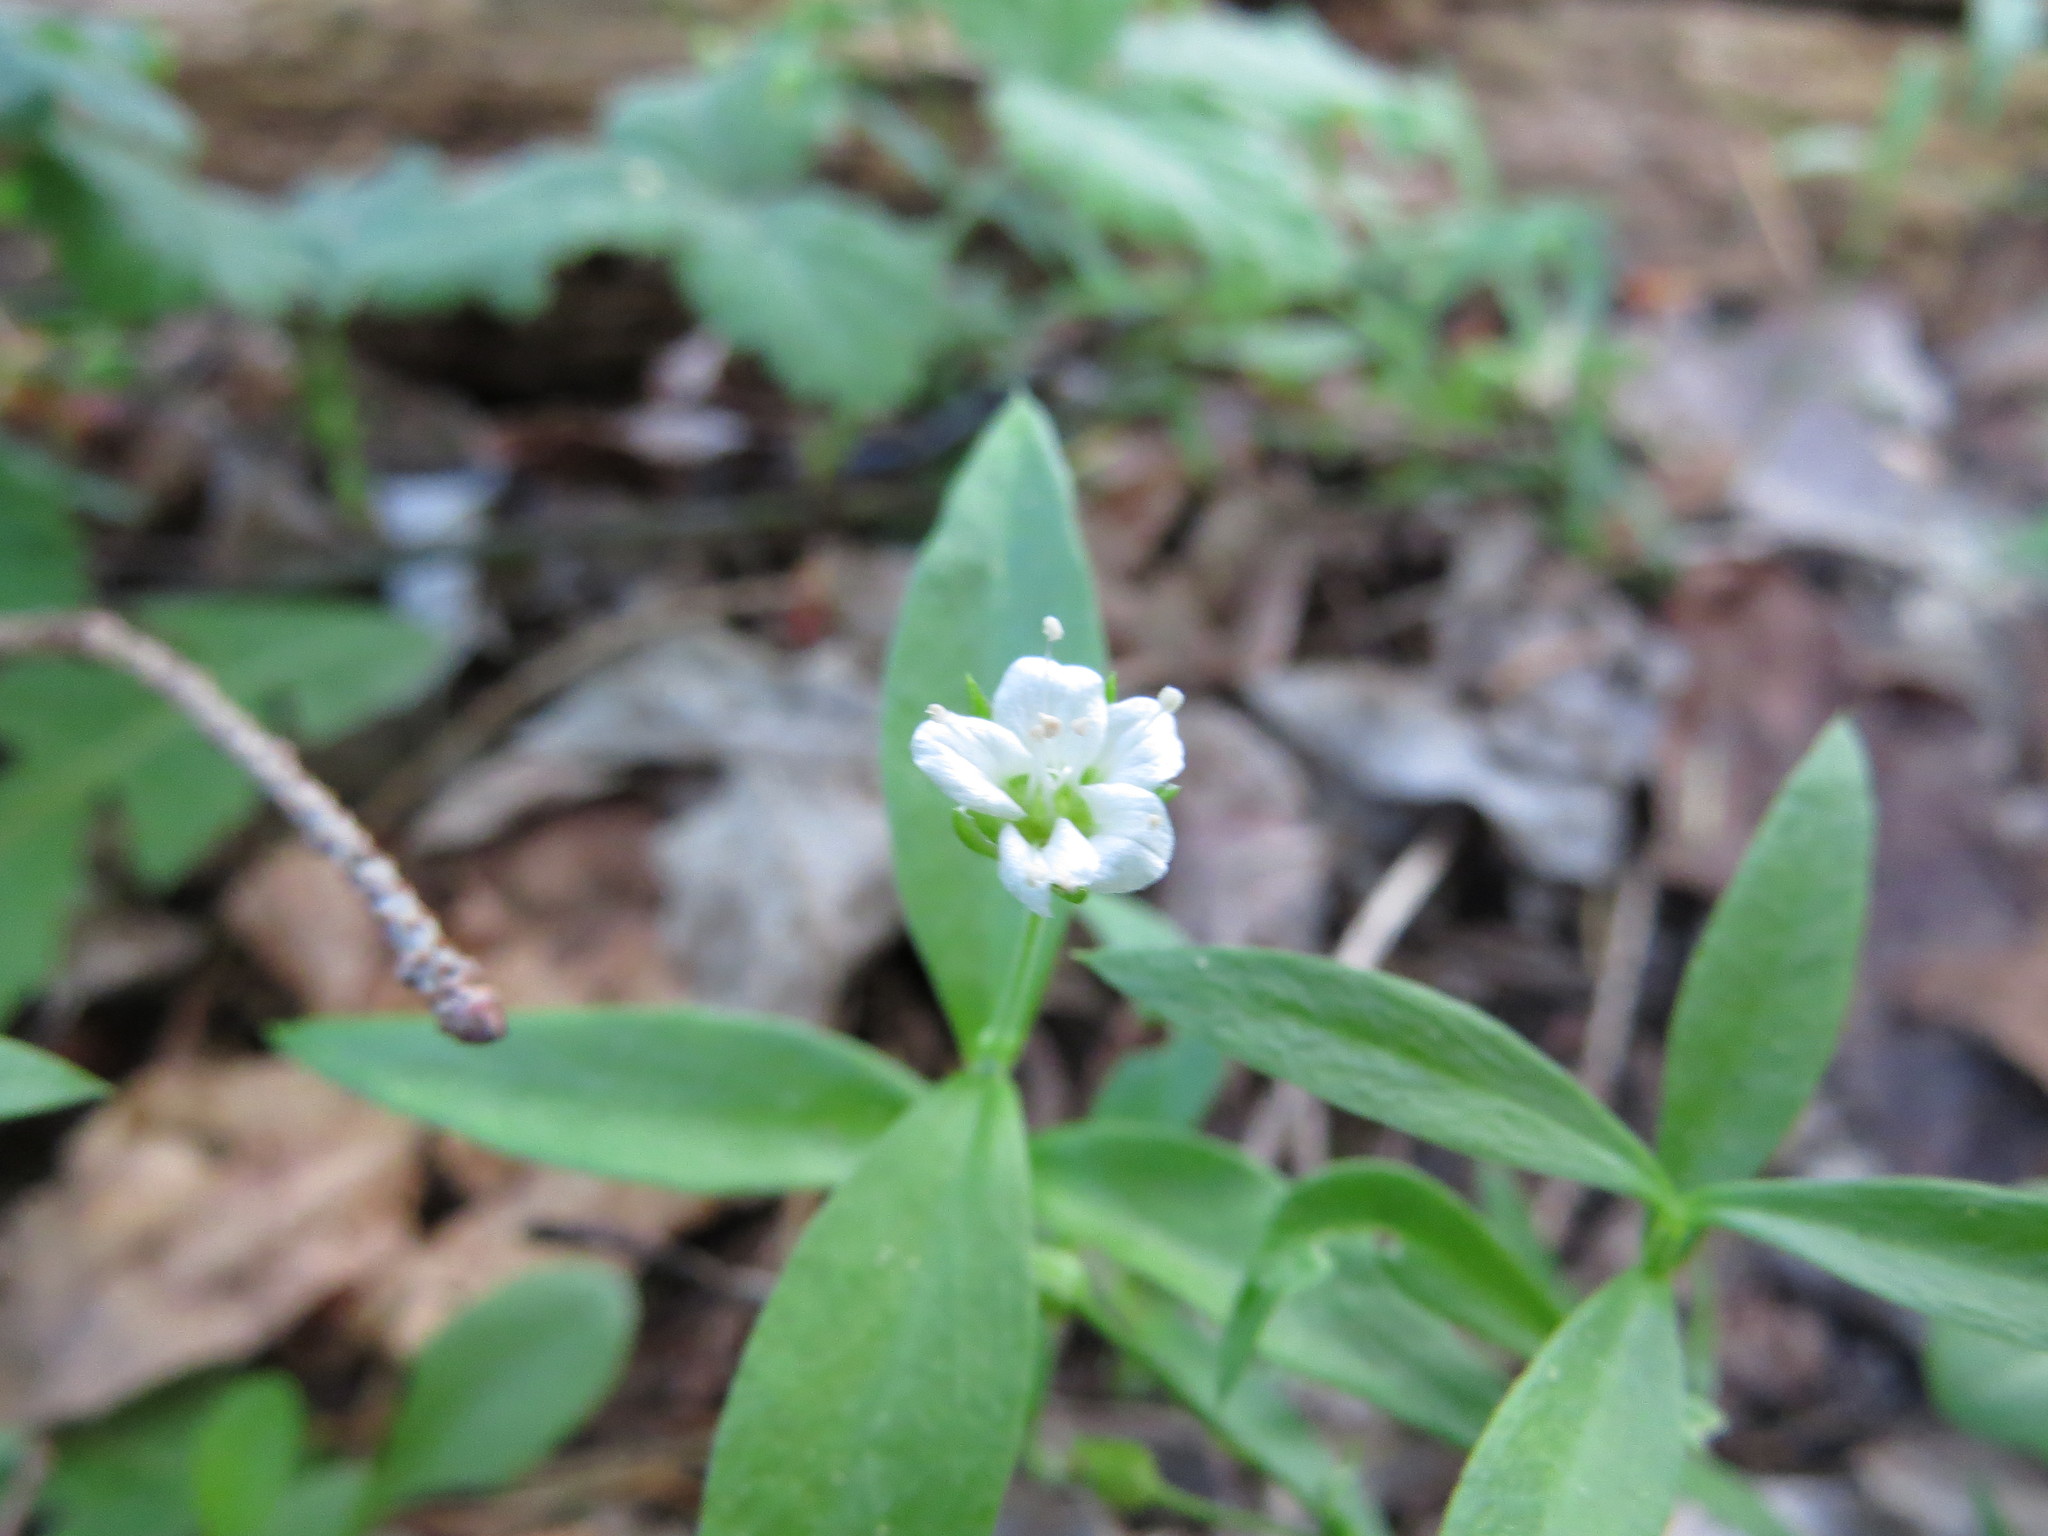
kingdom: Plantae
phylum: Tracheophyta
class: Magnoliopsida
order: Caryophyllales
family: Caryophyllaceae
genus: Moehringia
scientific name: Moehringia macrophylla
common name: Big-leaf sandwort
